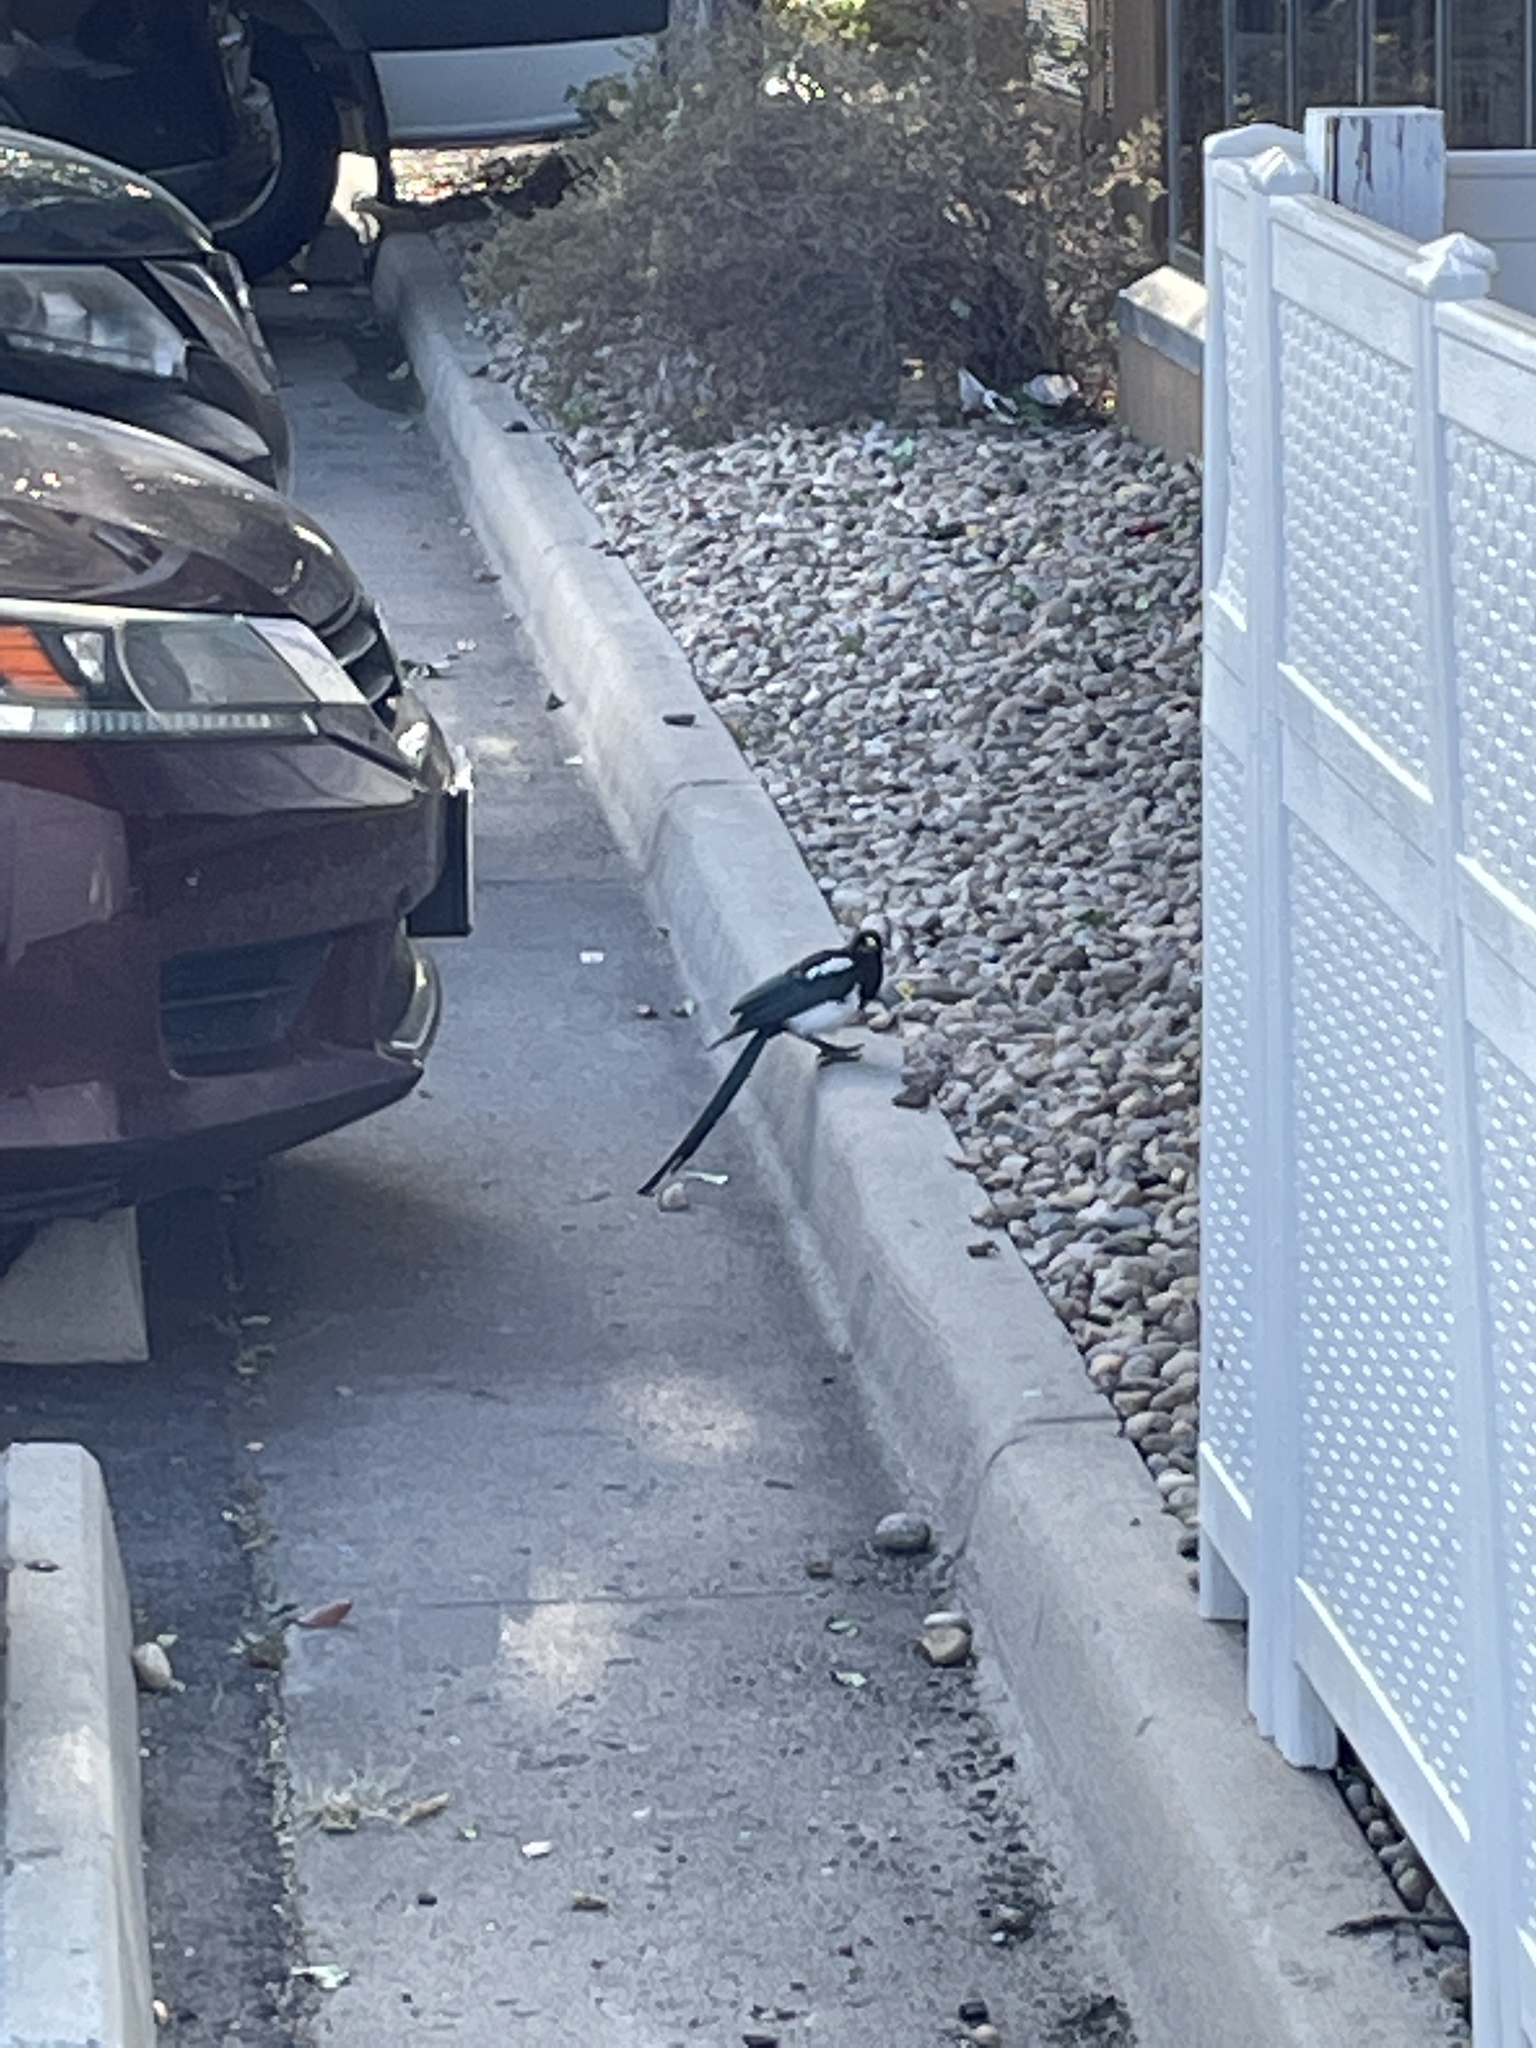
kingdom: Animalia
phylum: Chordata
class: Aves
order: Passeriformes
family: Corvidae
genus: Pica
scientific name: Pica hudsonia
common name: Black-billed magpie
